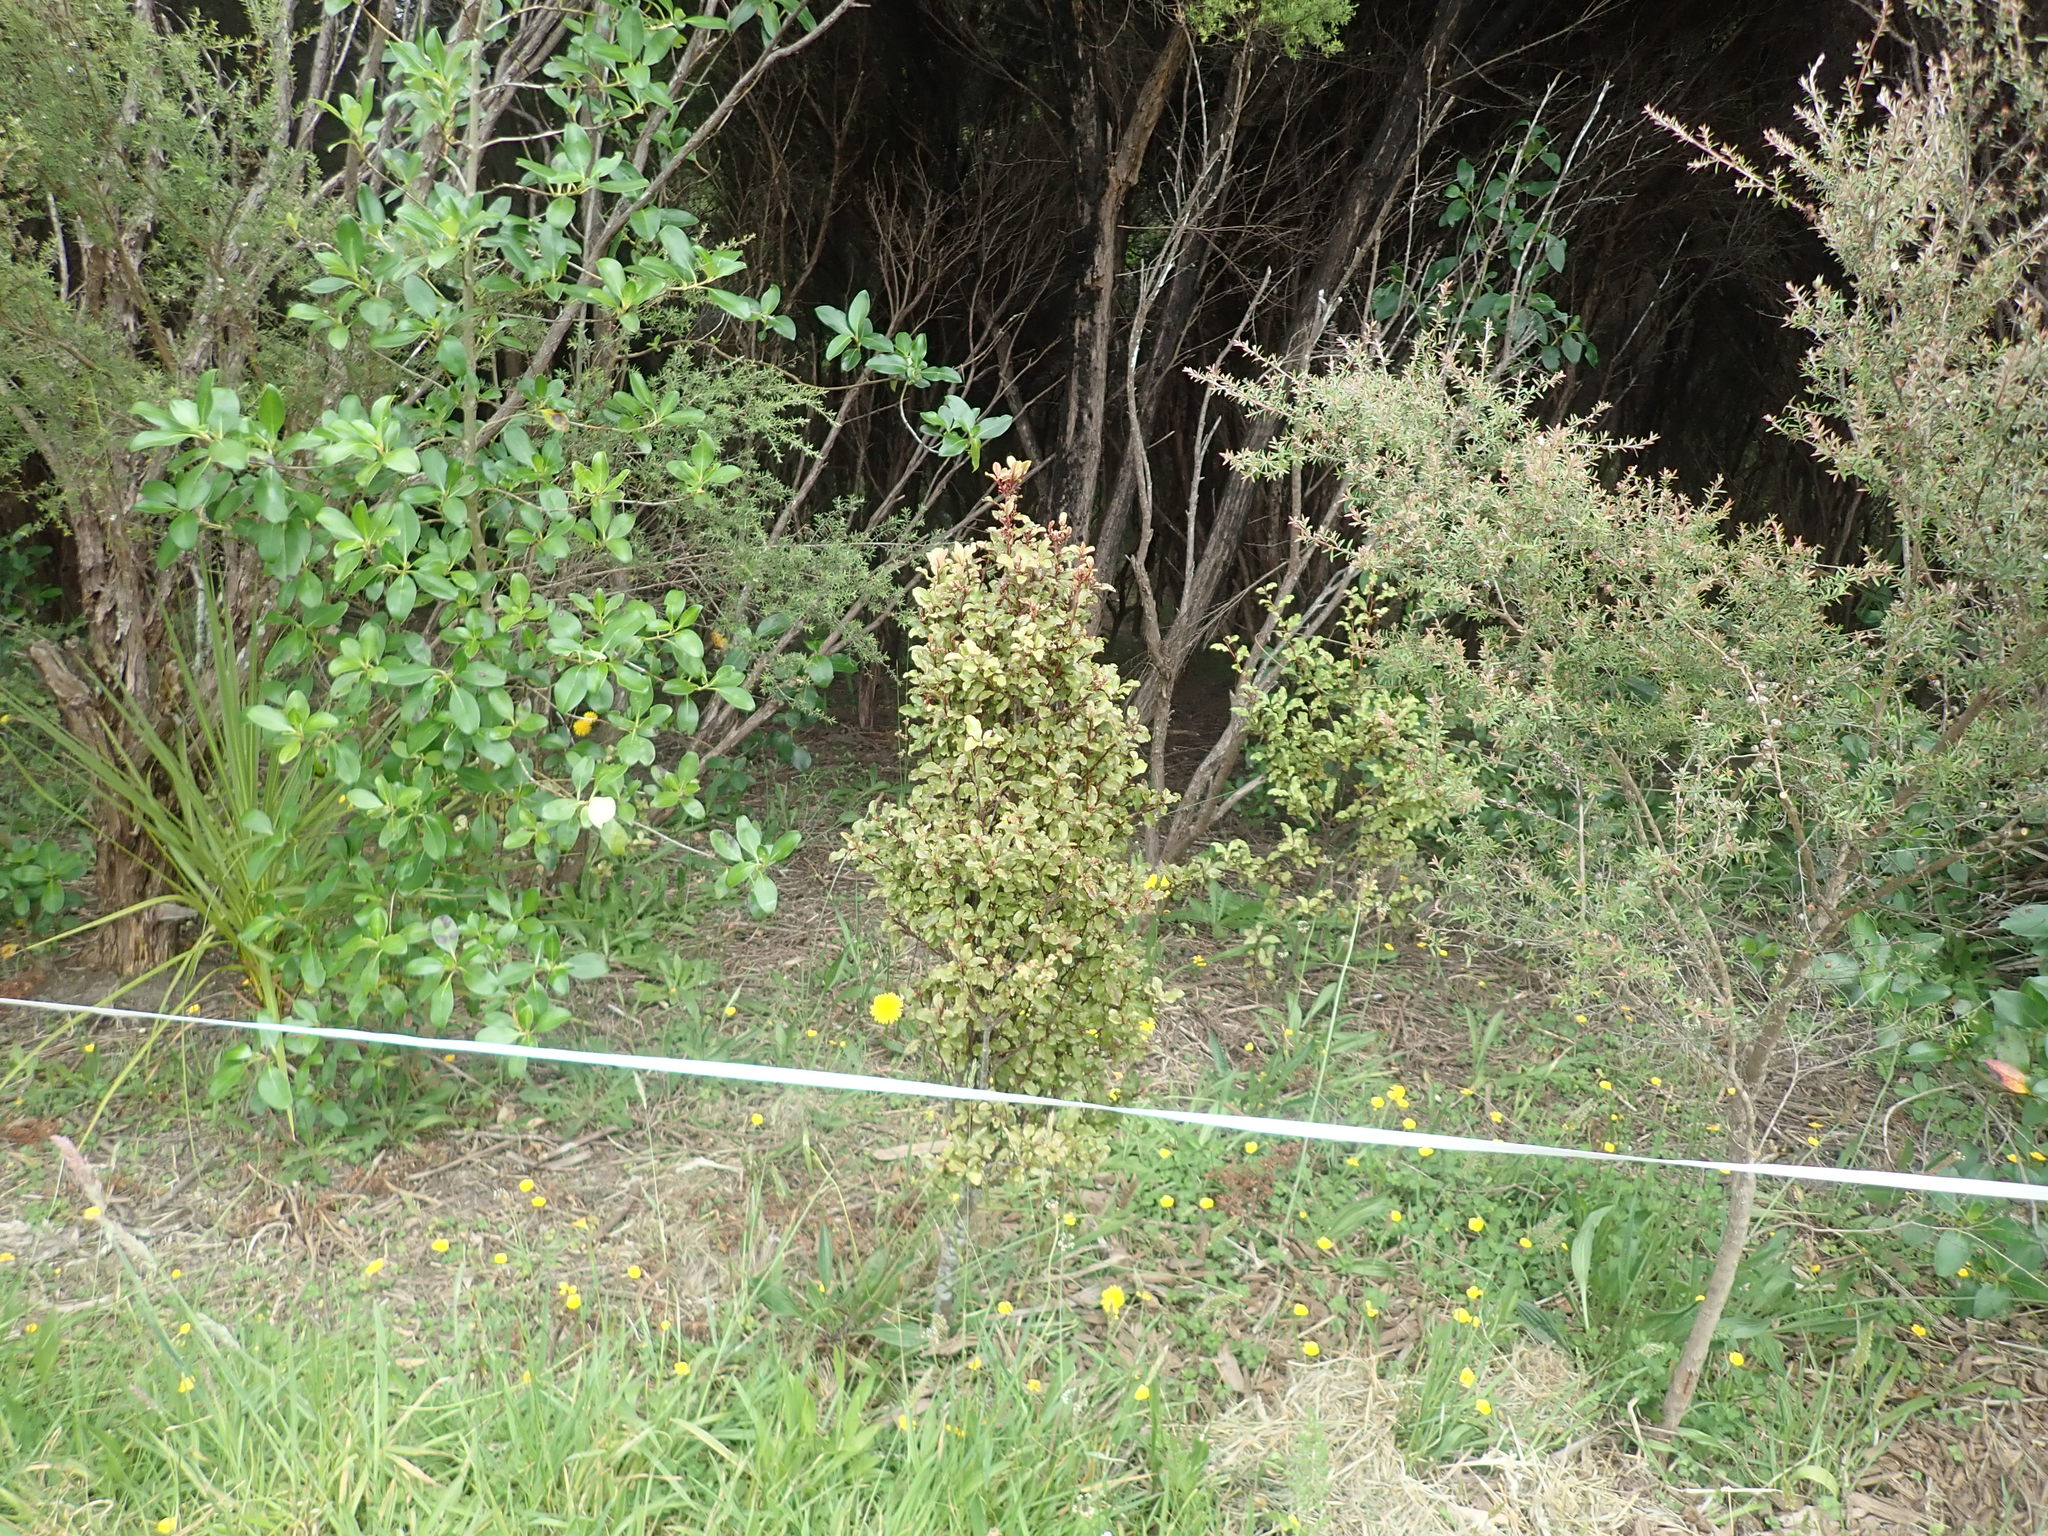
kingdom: Plantae
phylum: Tracheophyta
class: Magnoliopsida
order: Ericales
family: Primulaceae
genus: Myrsine
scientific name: Myrsine australis
